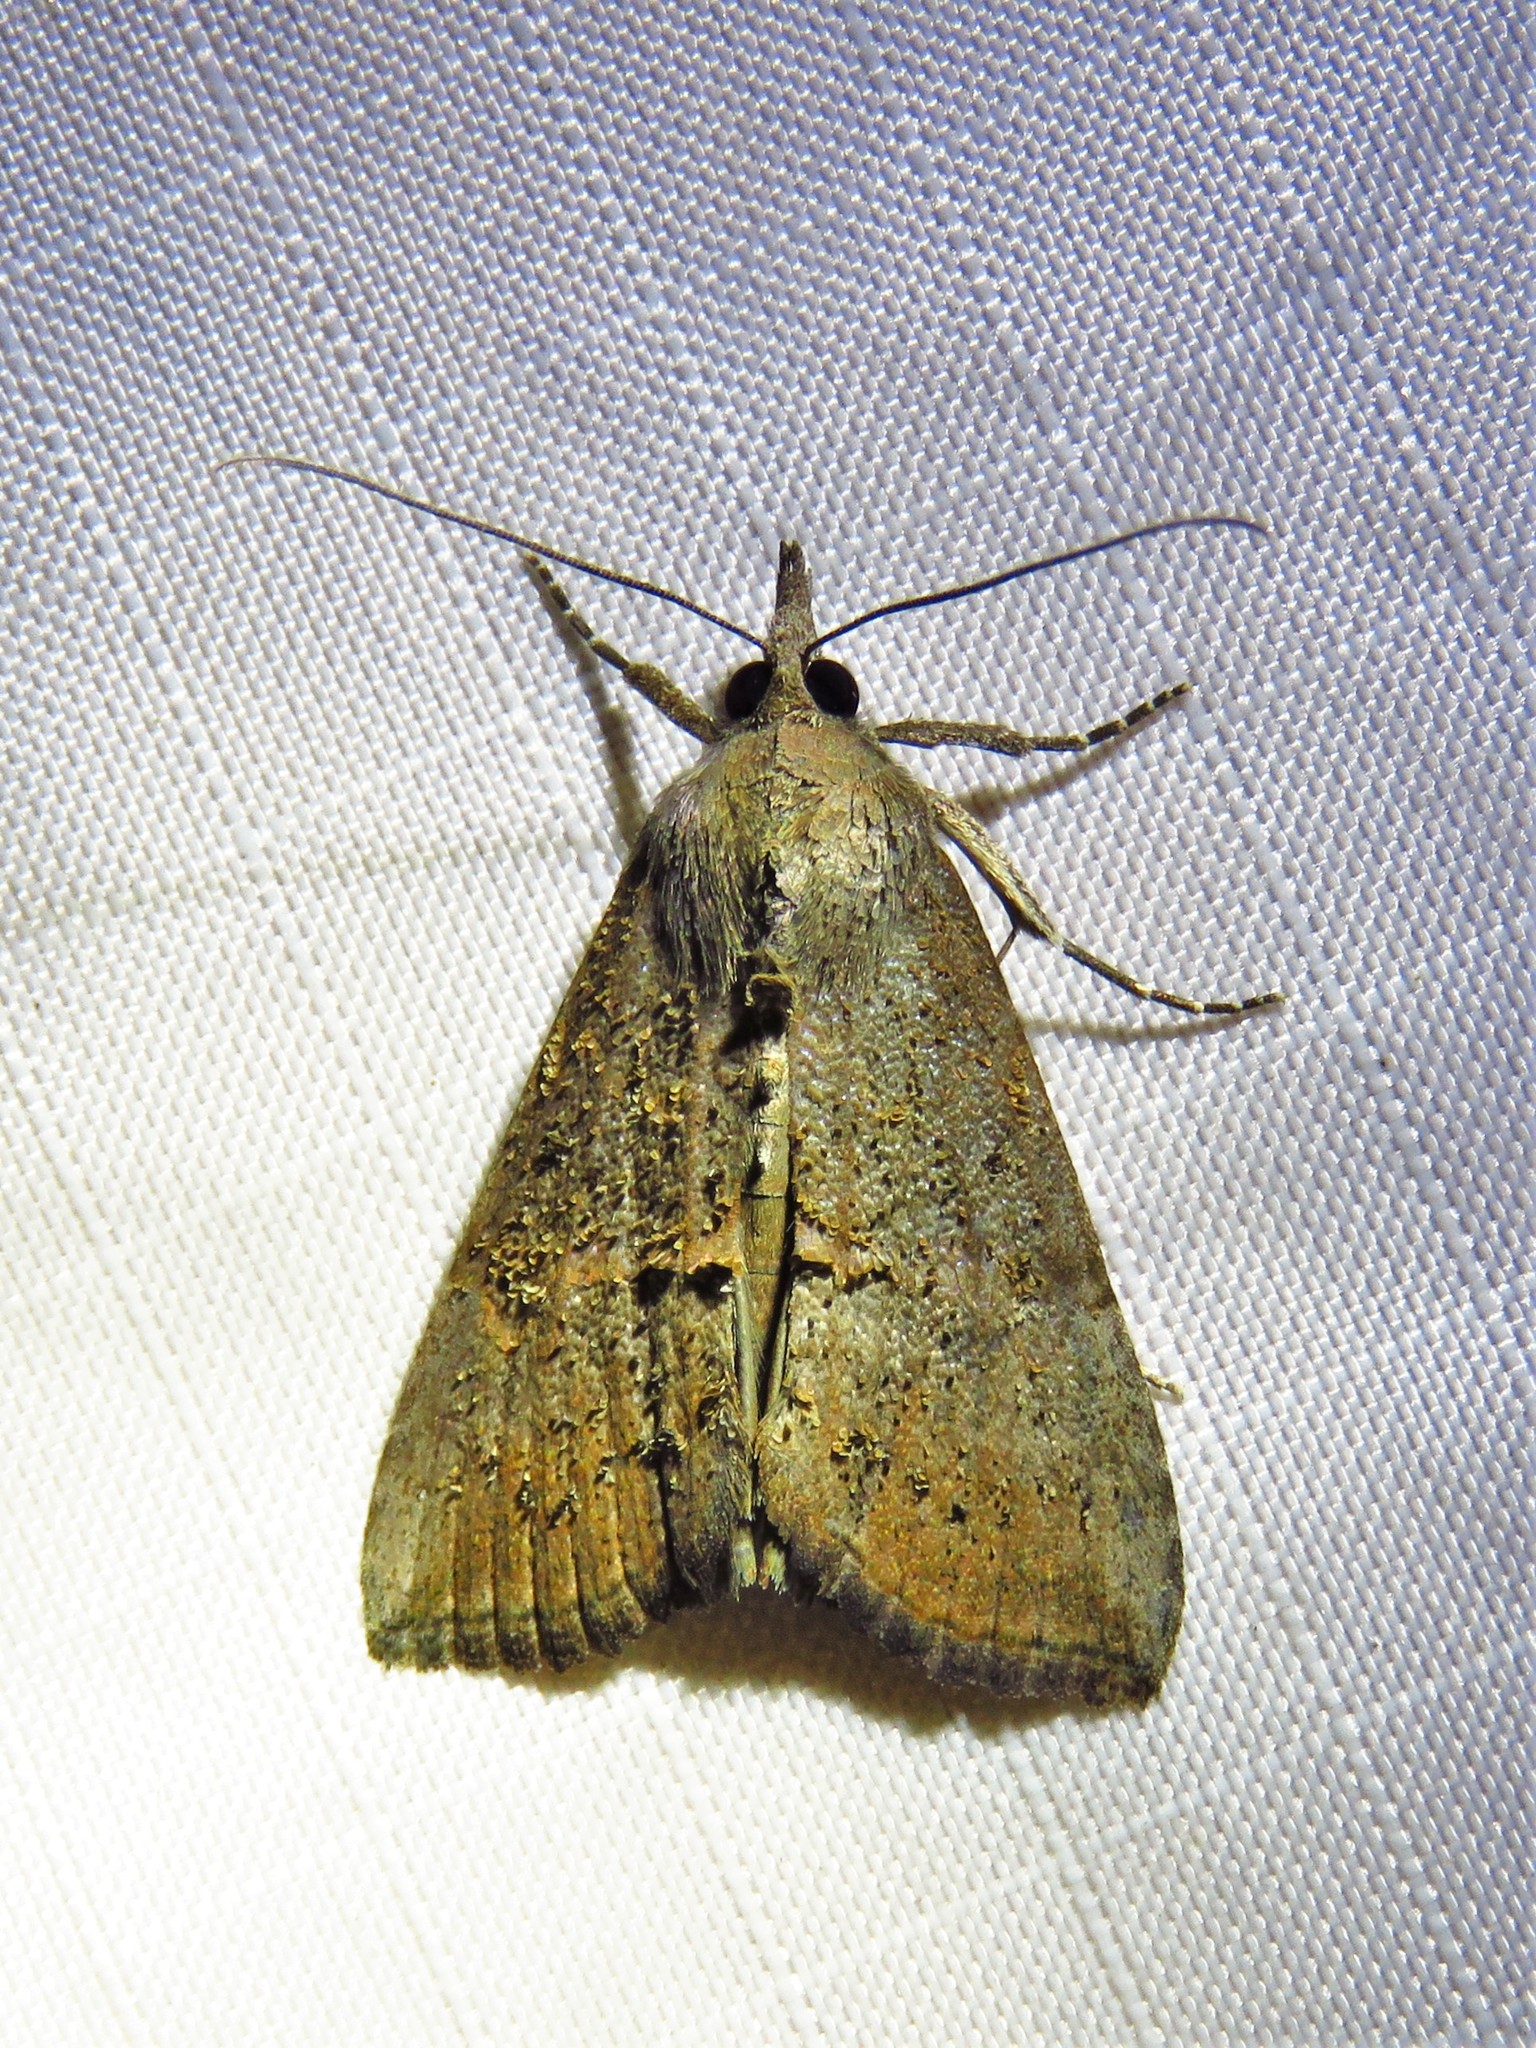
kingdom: Animalia
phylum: Arthropoda
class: Insecta
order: Lepidoptera
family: Erebidae
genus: Hypena
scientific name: Hypena scabra
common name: Green cloverworm
